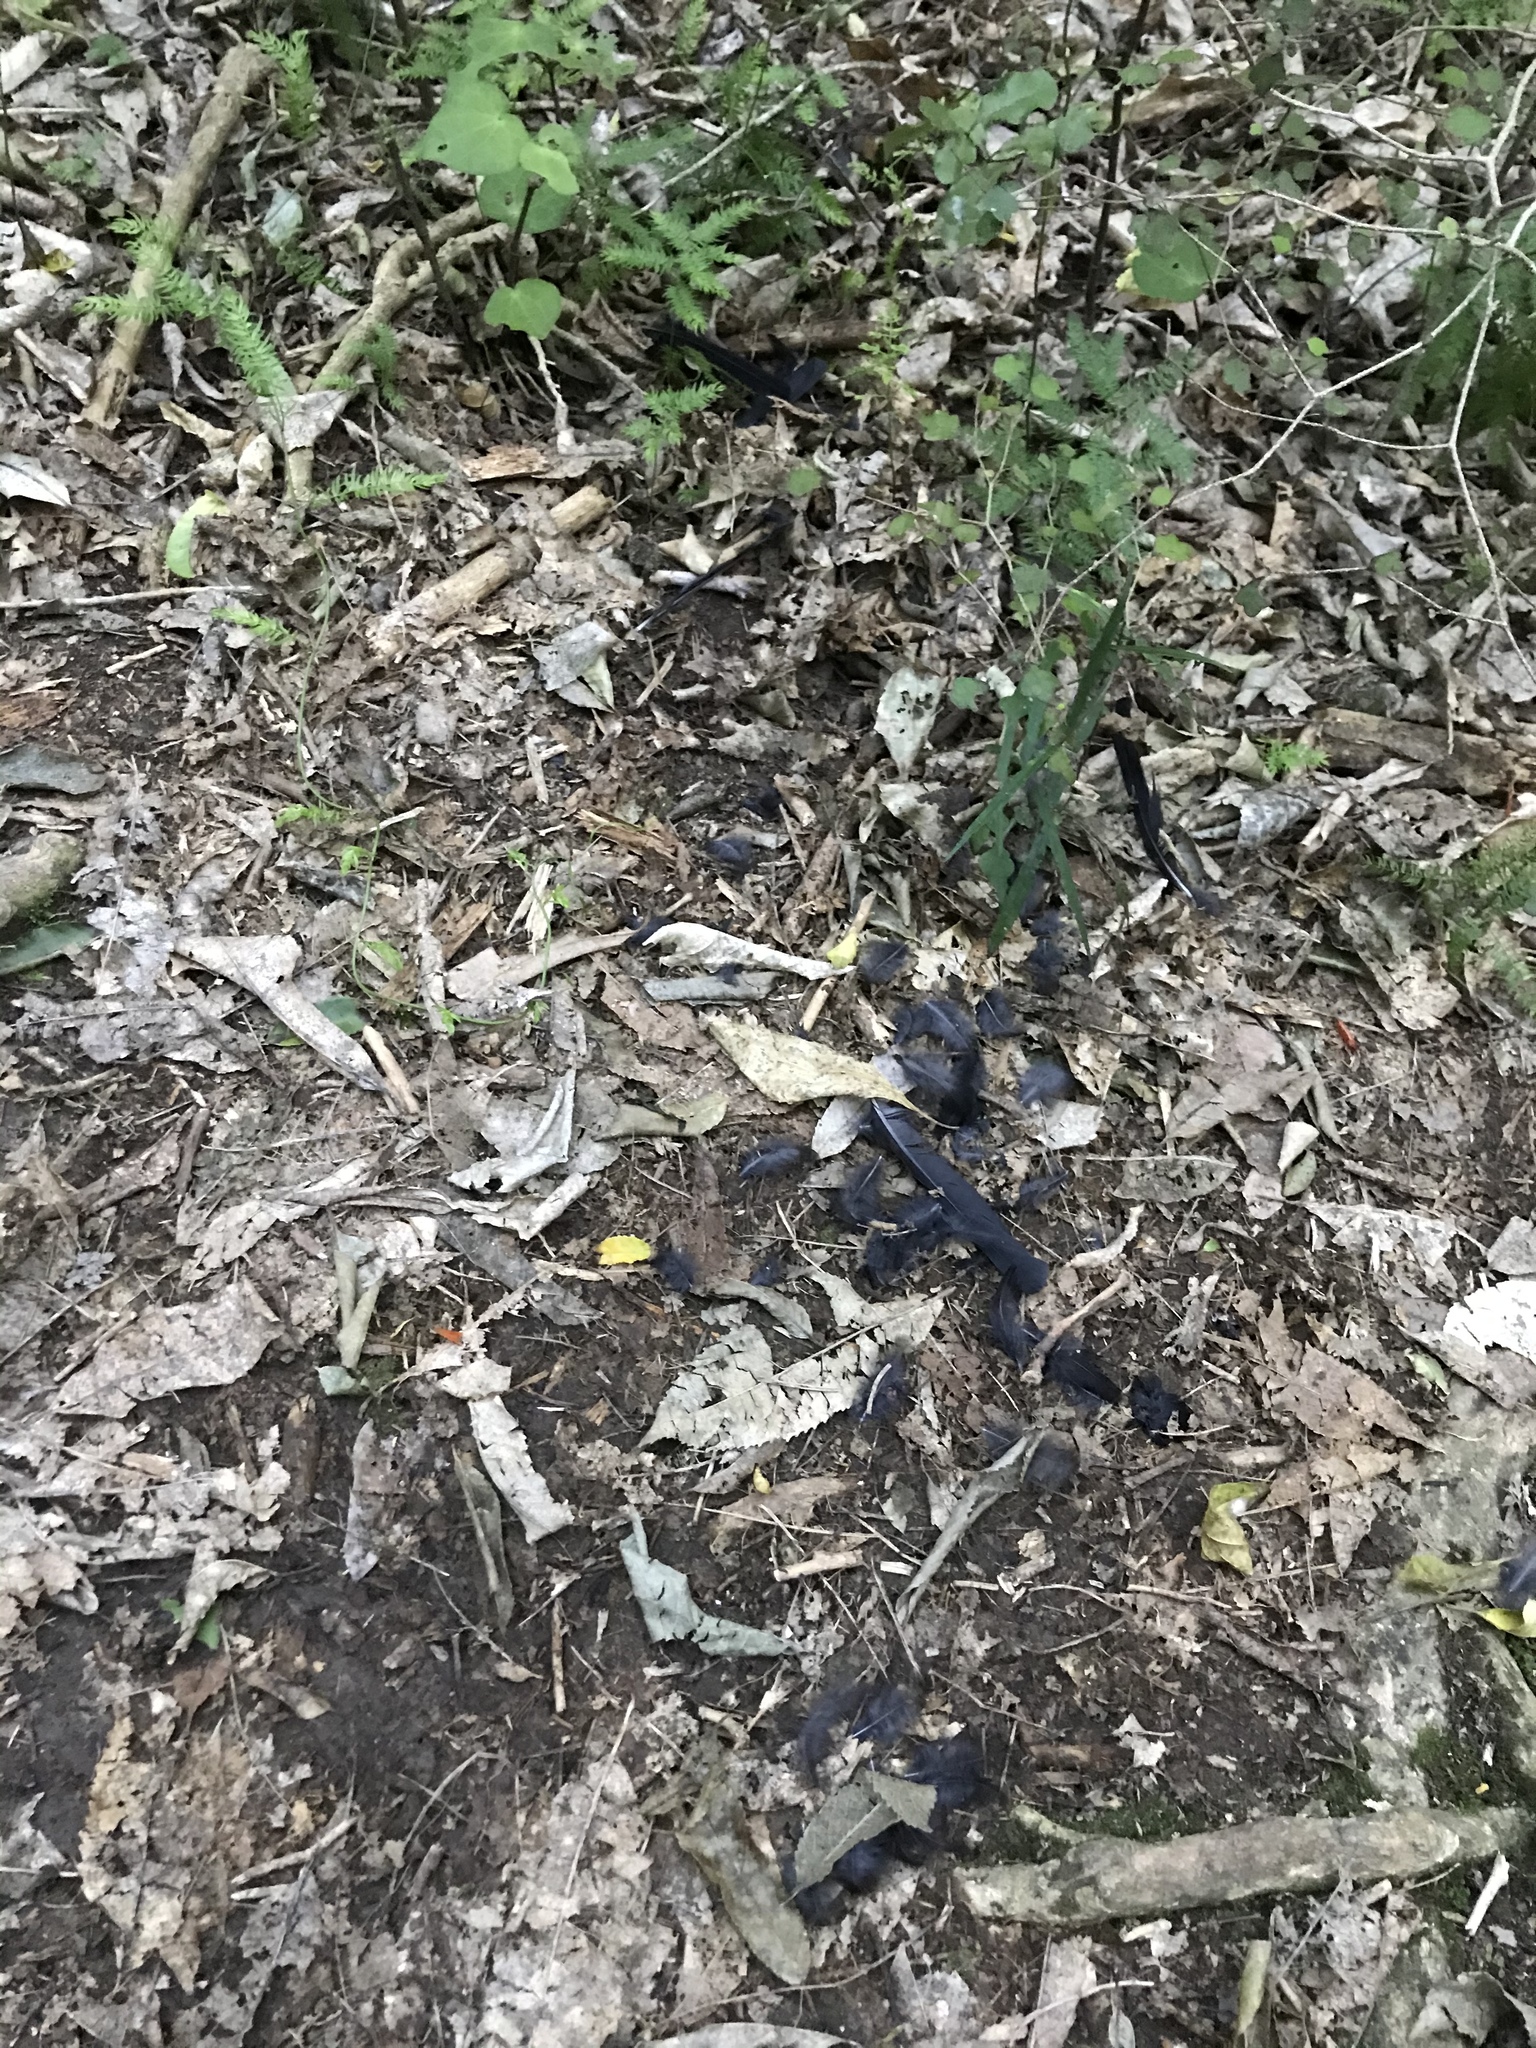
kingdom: Animalia
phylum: Chordata
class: Aves
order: Passeriformes
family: Turdidae
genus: Turdus
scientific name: Turdus merula
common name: Common blackbird
